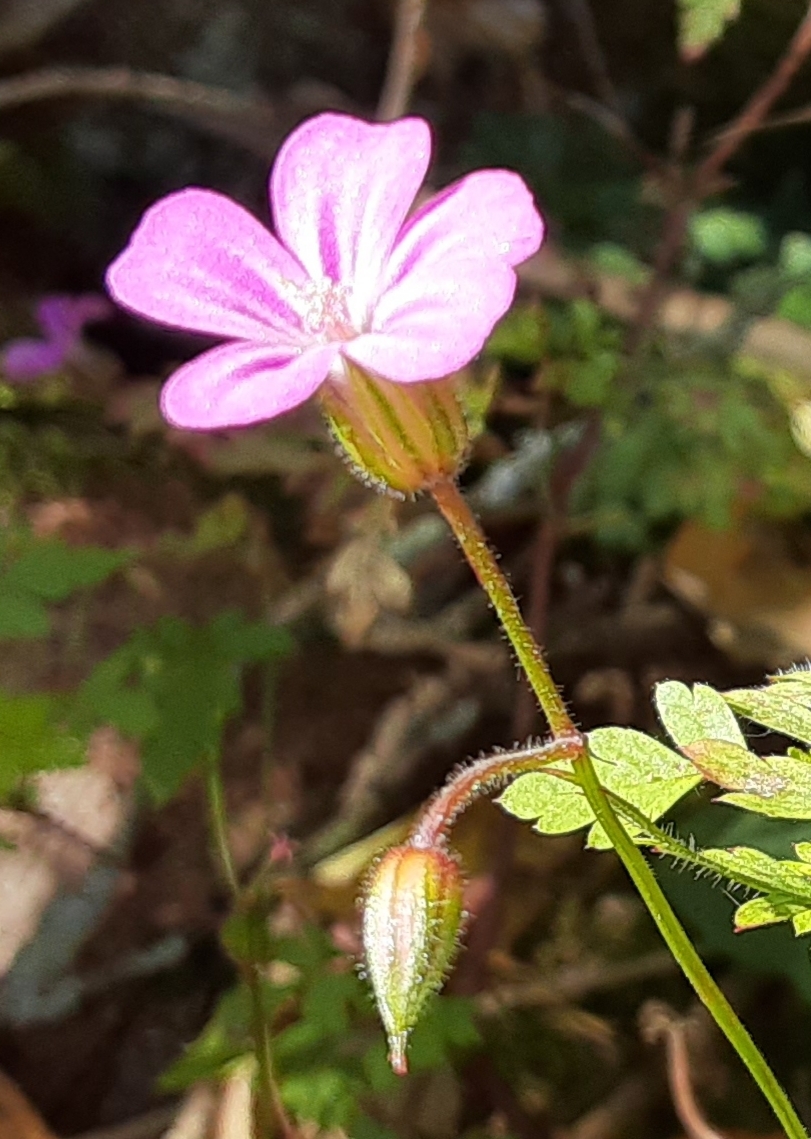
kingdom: Plantae
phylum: Tracheophyta
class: Magnoliopsida
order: Geraniales
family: Geraniaceae
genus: Geranium
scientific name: Geranium robertianum
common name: Herb-robert
